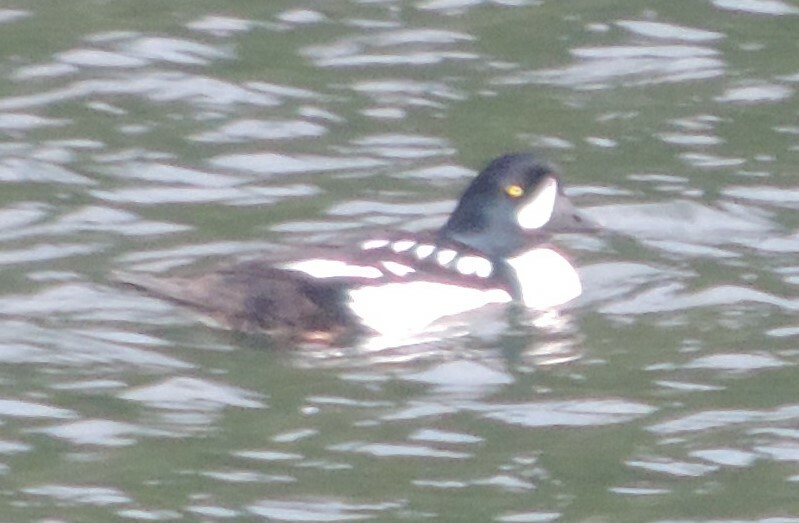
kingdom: Animalia
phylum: Chordata
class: Aves
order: Anseriformes
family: Anatidae
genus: Bucephala
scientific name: Bucephala islandica
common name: Barrow's goldeneye
